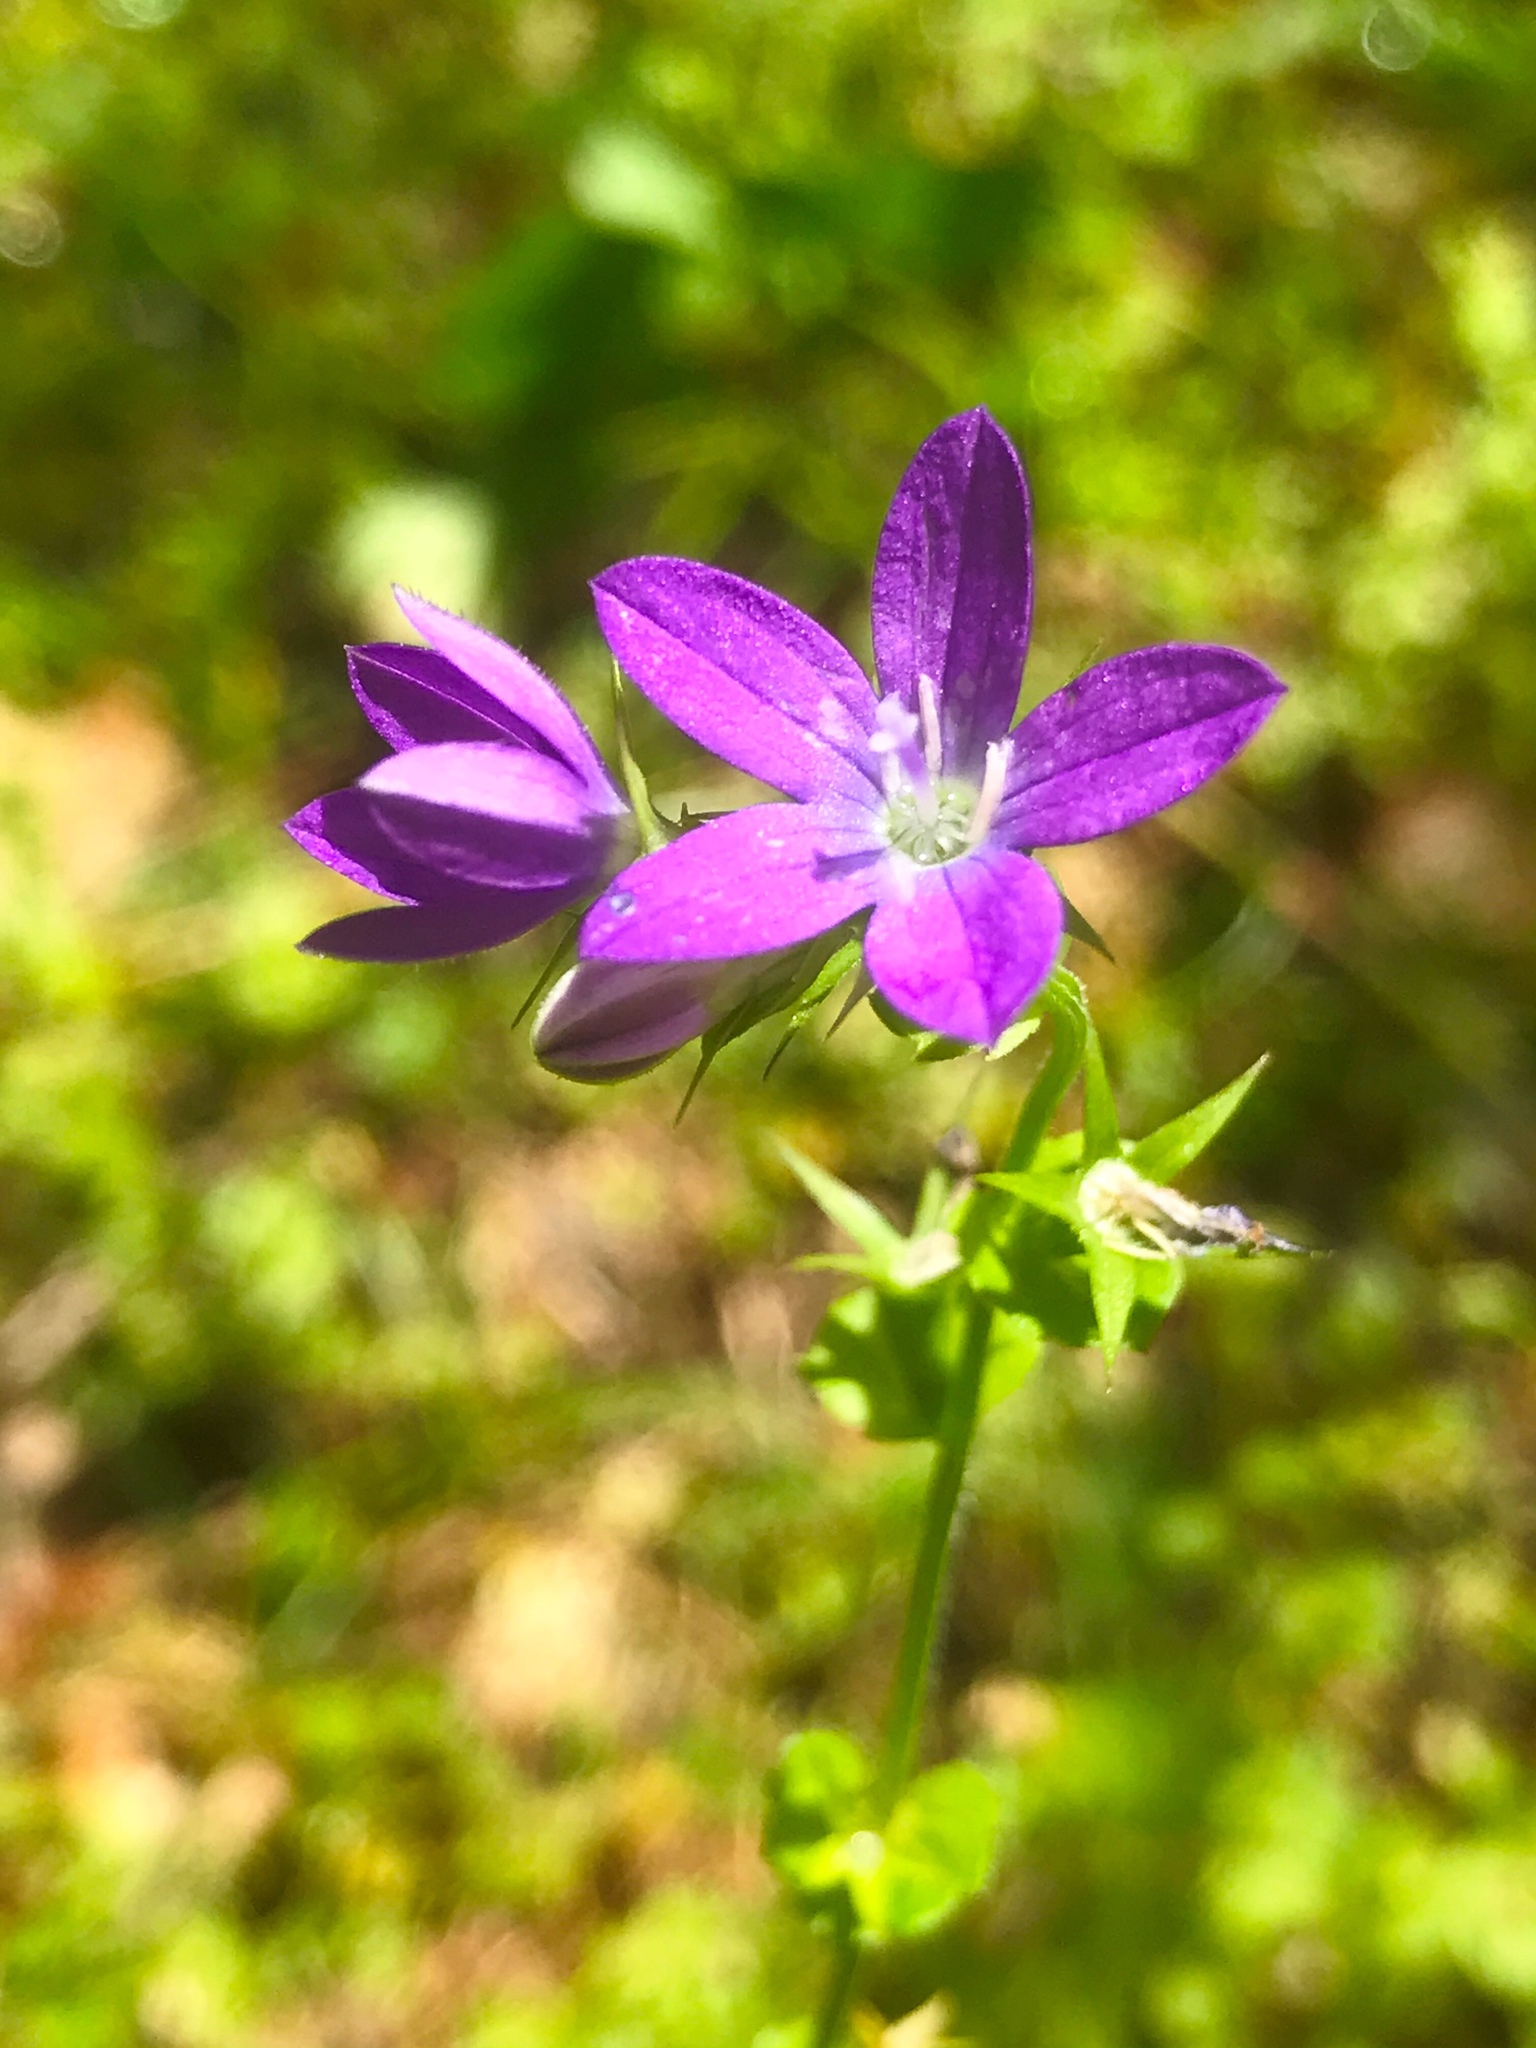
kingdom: Plantae
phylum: Tracheophyta
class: Magnoliopsida
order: Asterales
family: Campanulaceae
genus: Triodanis
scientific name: Triodanis perfoliata
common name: Clasping venus' looking-glass
